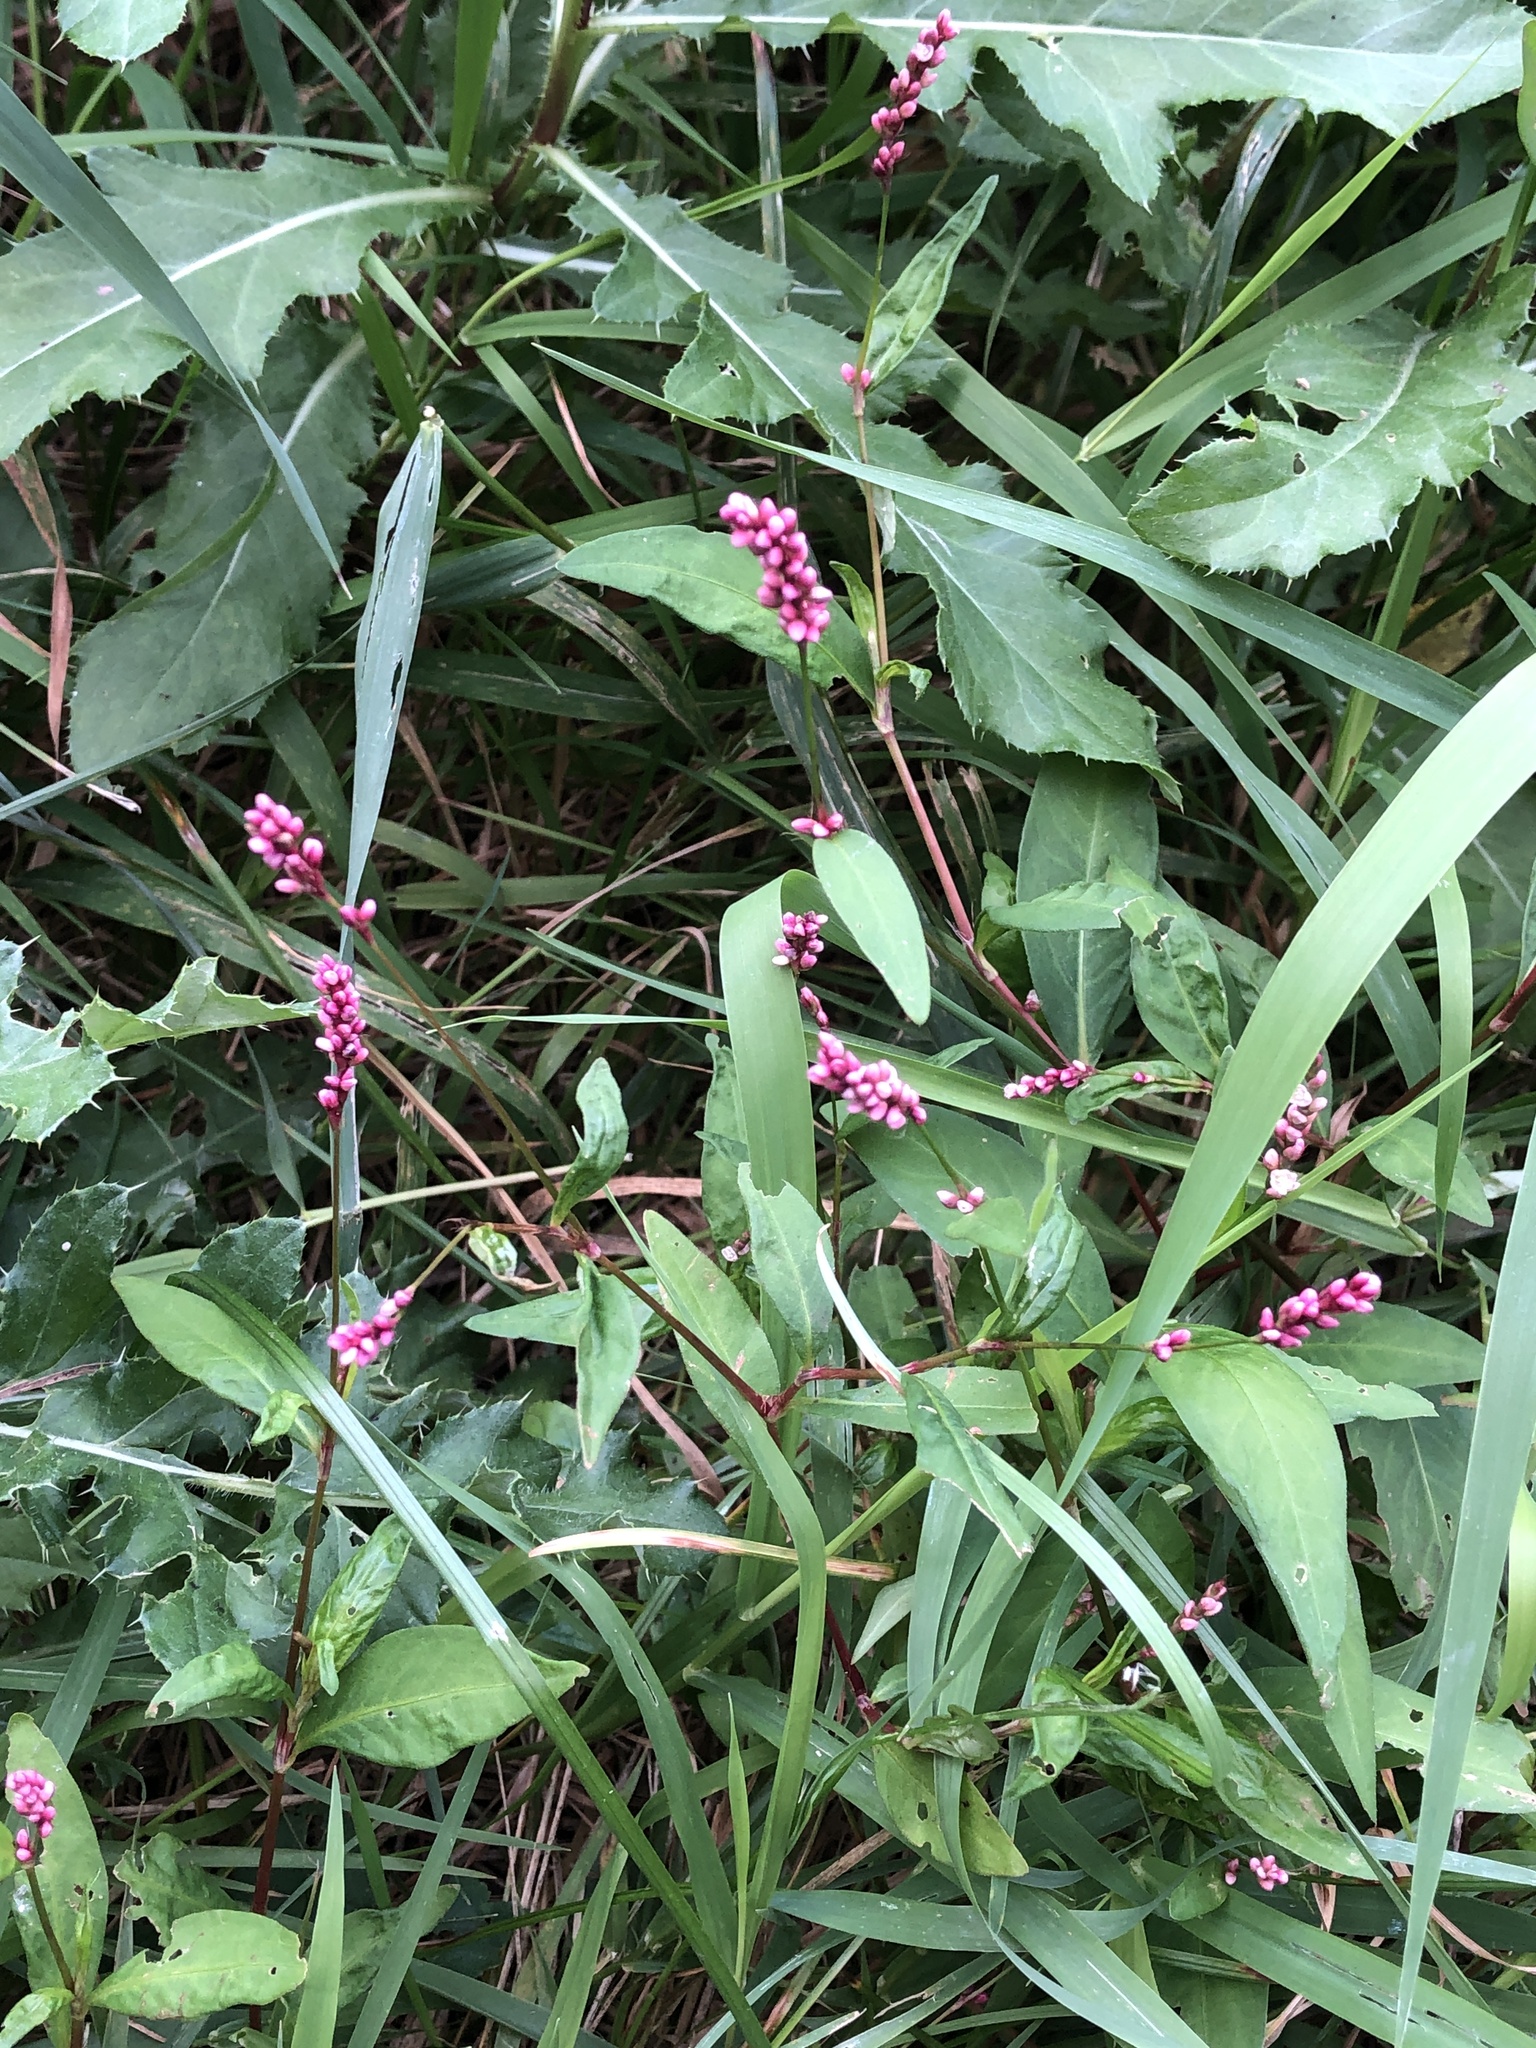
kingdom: Plantae
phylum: Tracheophyta
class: Magnoliopsida
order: Caryophyllales
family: Polygonaceae
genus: Persicaria
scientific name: Persicaria longiseta
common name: Bristly lady's-thumb
